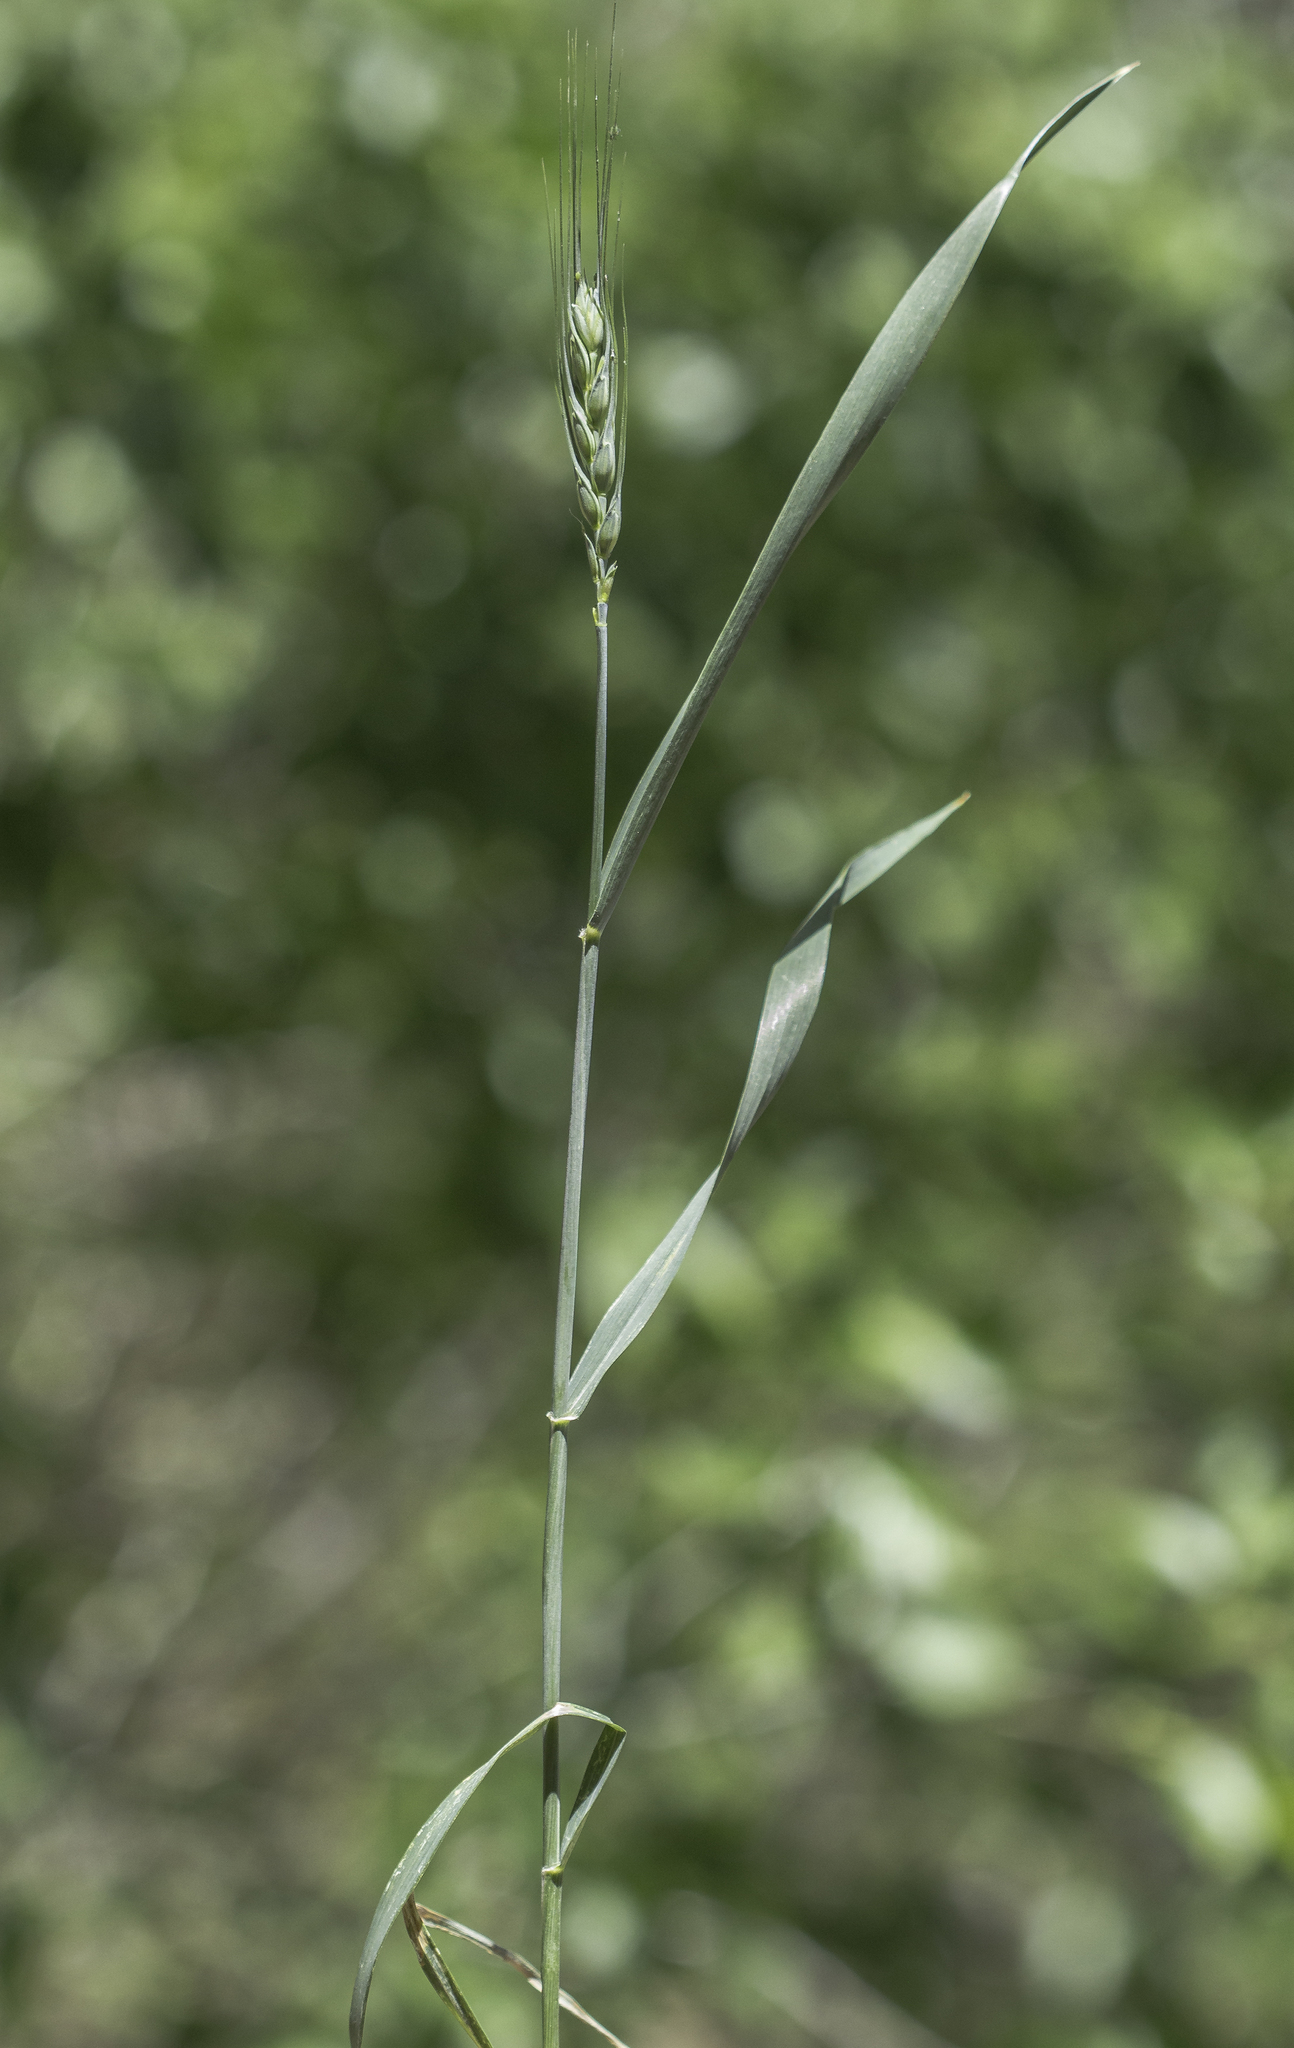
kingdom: Plantae
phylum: Tracheophyta
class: Liliopsida
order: Poales
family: Poaceae
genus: Triticum
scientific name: Triticum aestivum
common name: Common wheat
